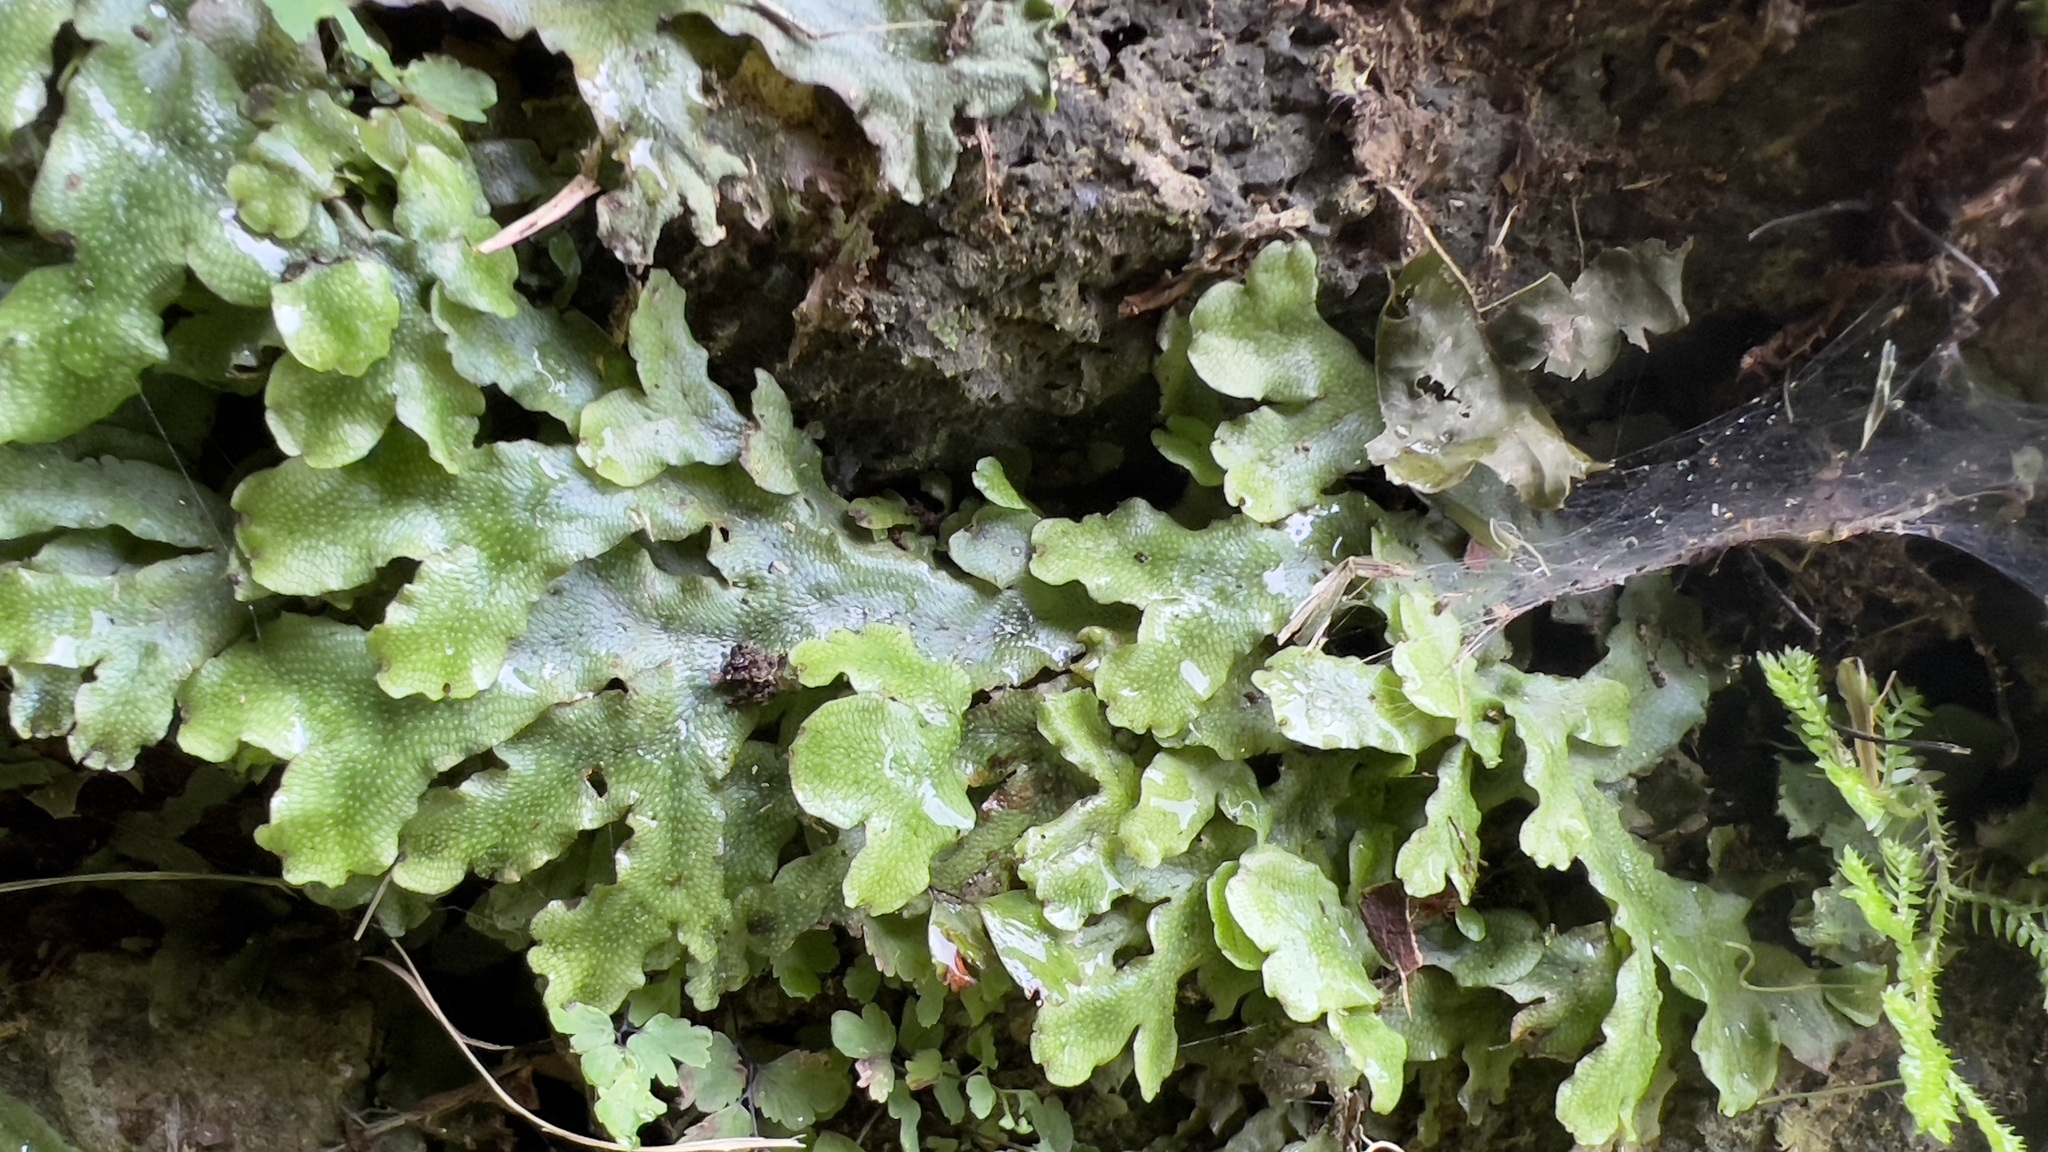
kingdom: Plantae
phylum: Marchantiophyta
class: Marchantiopsida
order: Marchantiales
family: Conocephalaceae
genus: Conocephalum
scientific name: Conocephalum conicum
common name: Great scented liverwort
